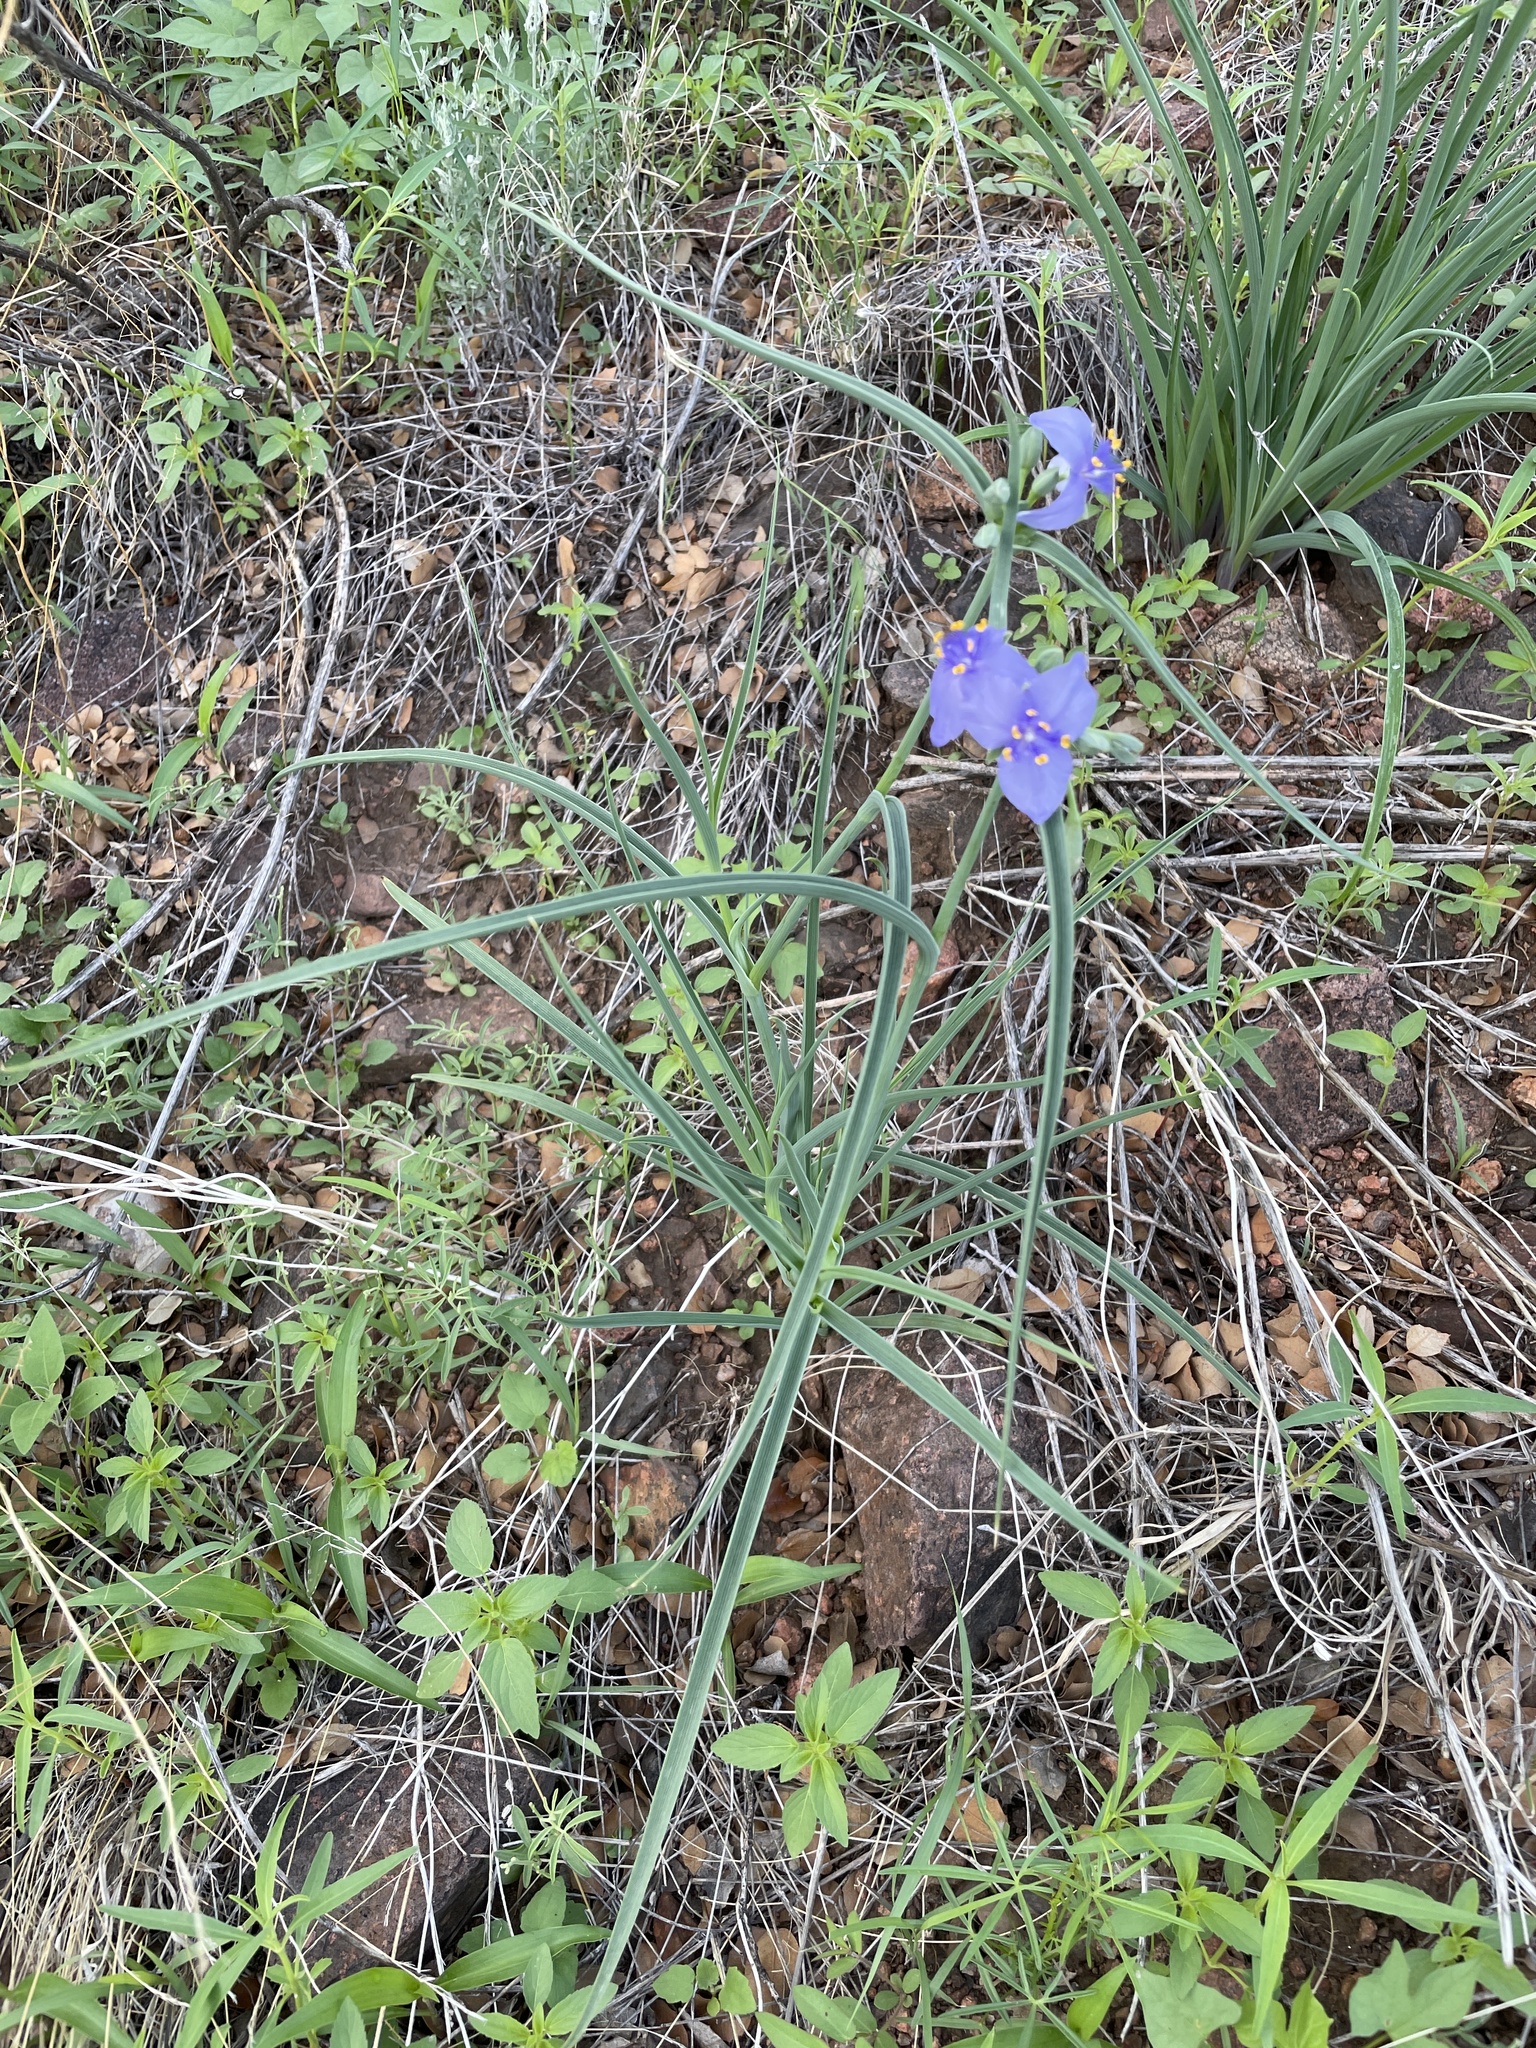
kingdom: Plantae
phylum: Tracheophyta
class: Liliopsida
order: Commelinales
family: Commelinaceae
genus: Tradescantia
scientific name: Tradescantia occidentalis
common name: Prairie spiderwort
